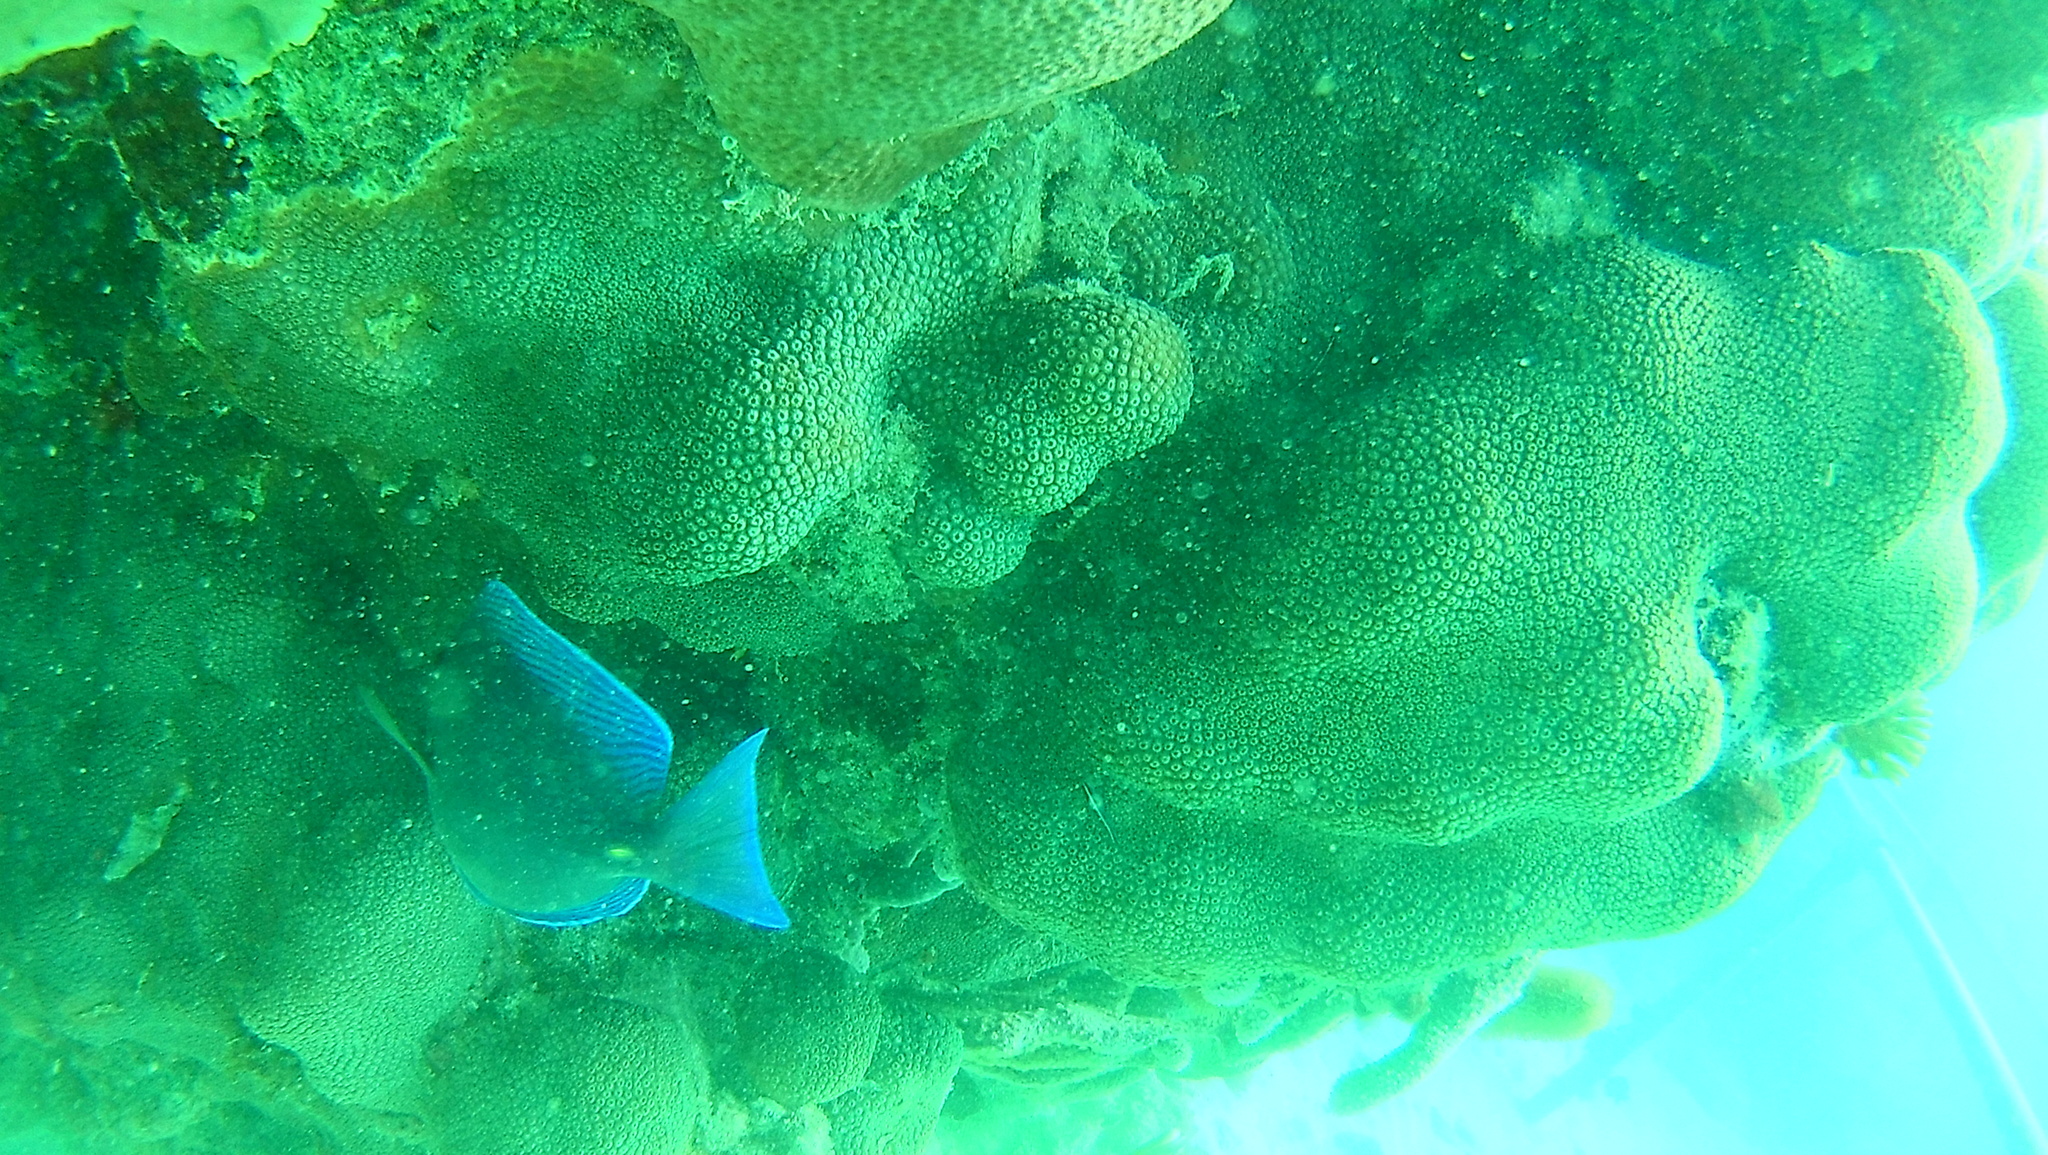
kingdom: Animalia
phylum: Chordata
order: Perciformes
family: Acanthuridae
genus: Acanthurus
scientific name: Acanthurus coeruleus
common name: Blue tang
